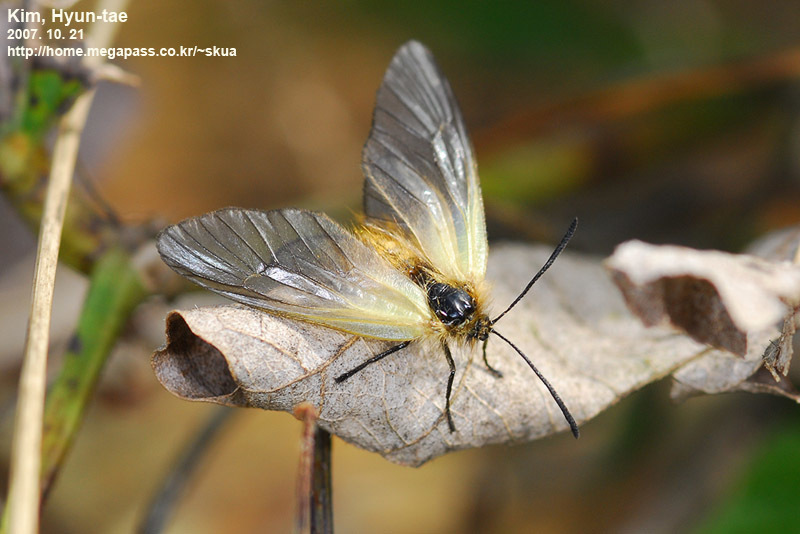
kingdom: Animalia
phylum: Arthropoda
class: Insecta
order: Lepidoptera
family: Zygaenidae
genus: Sinica
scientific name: Sinica sinica
